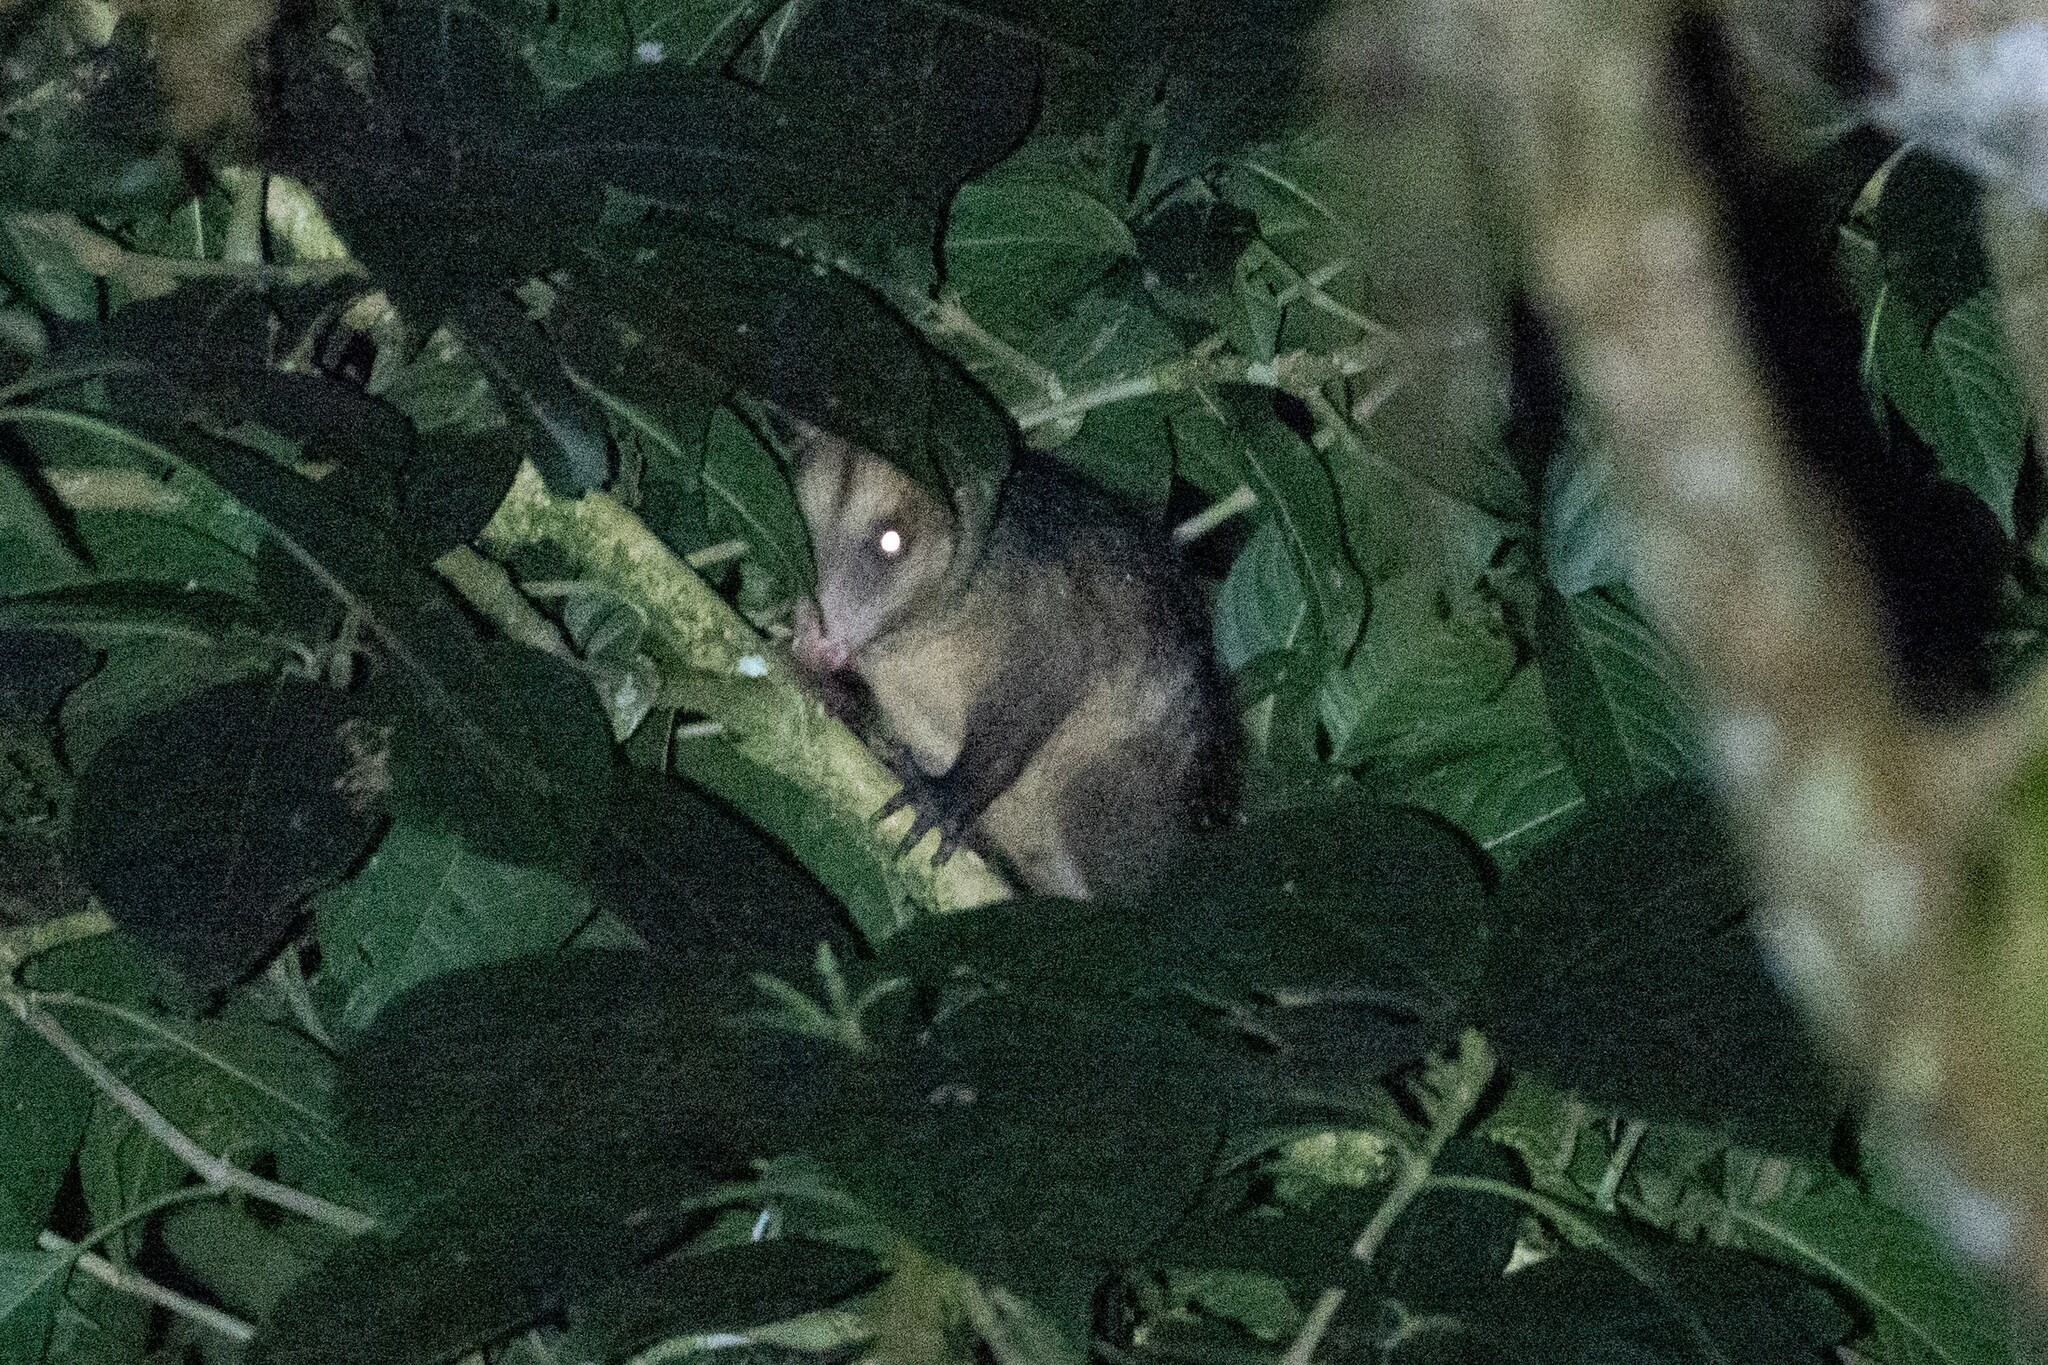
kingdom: Animalia
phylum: Chordata
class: Mammalia
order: Didelphimorphia
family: Didelphidae
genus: Didelphis
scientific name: Didelphis marsupialis
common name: Common opossum
